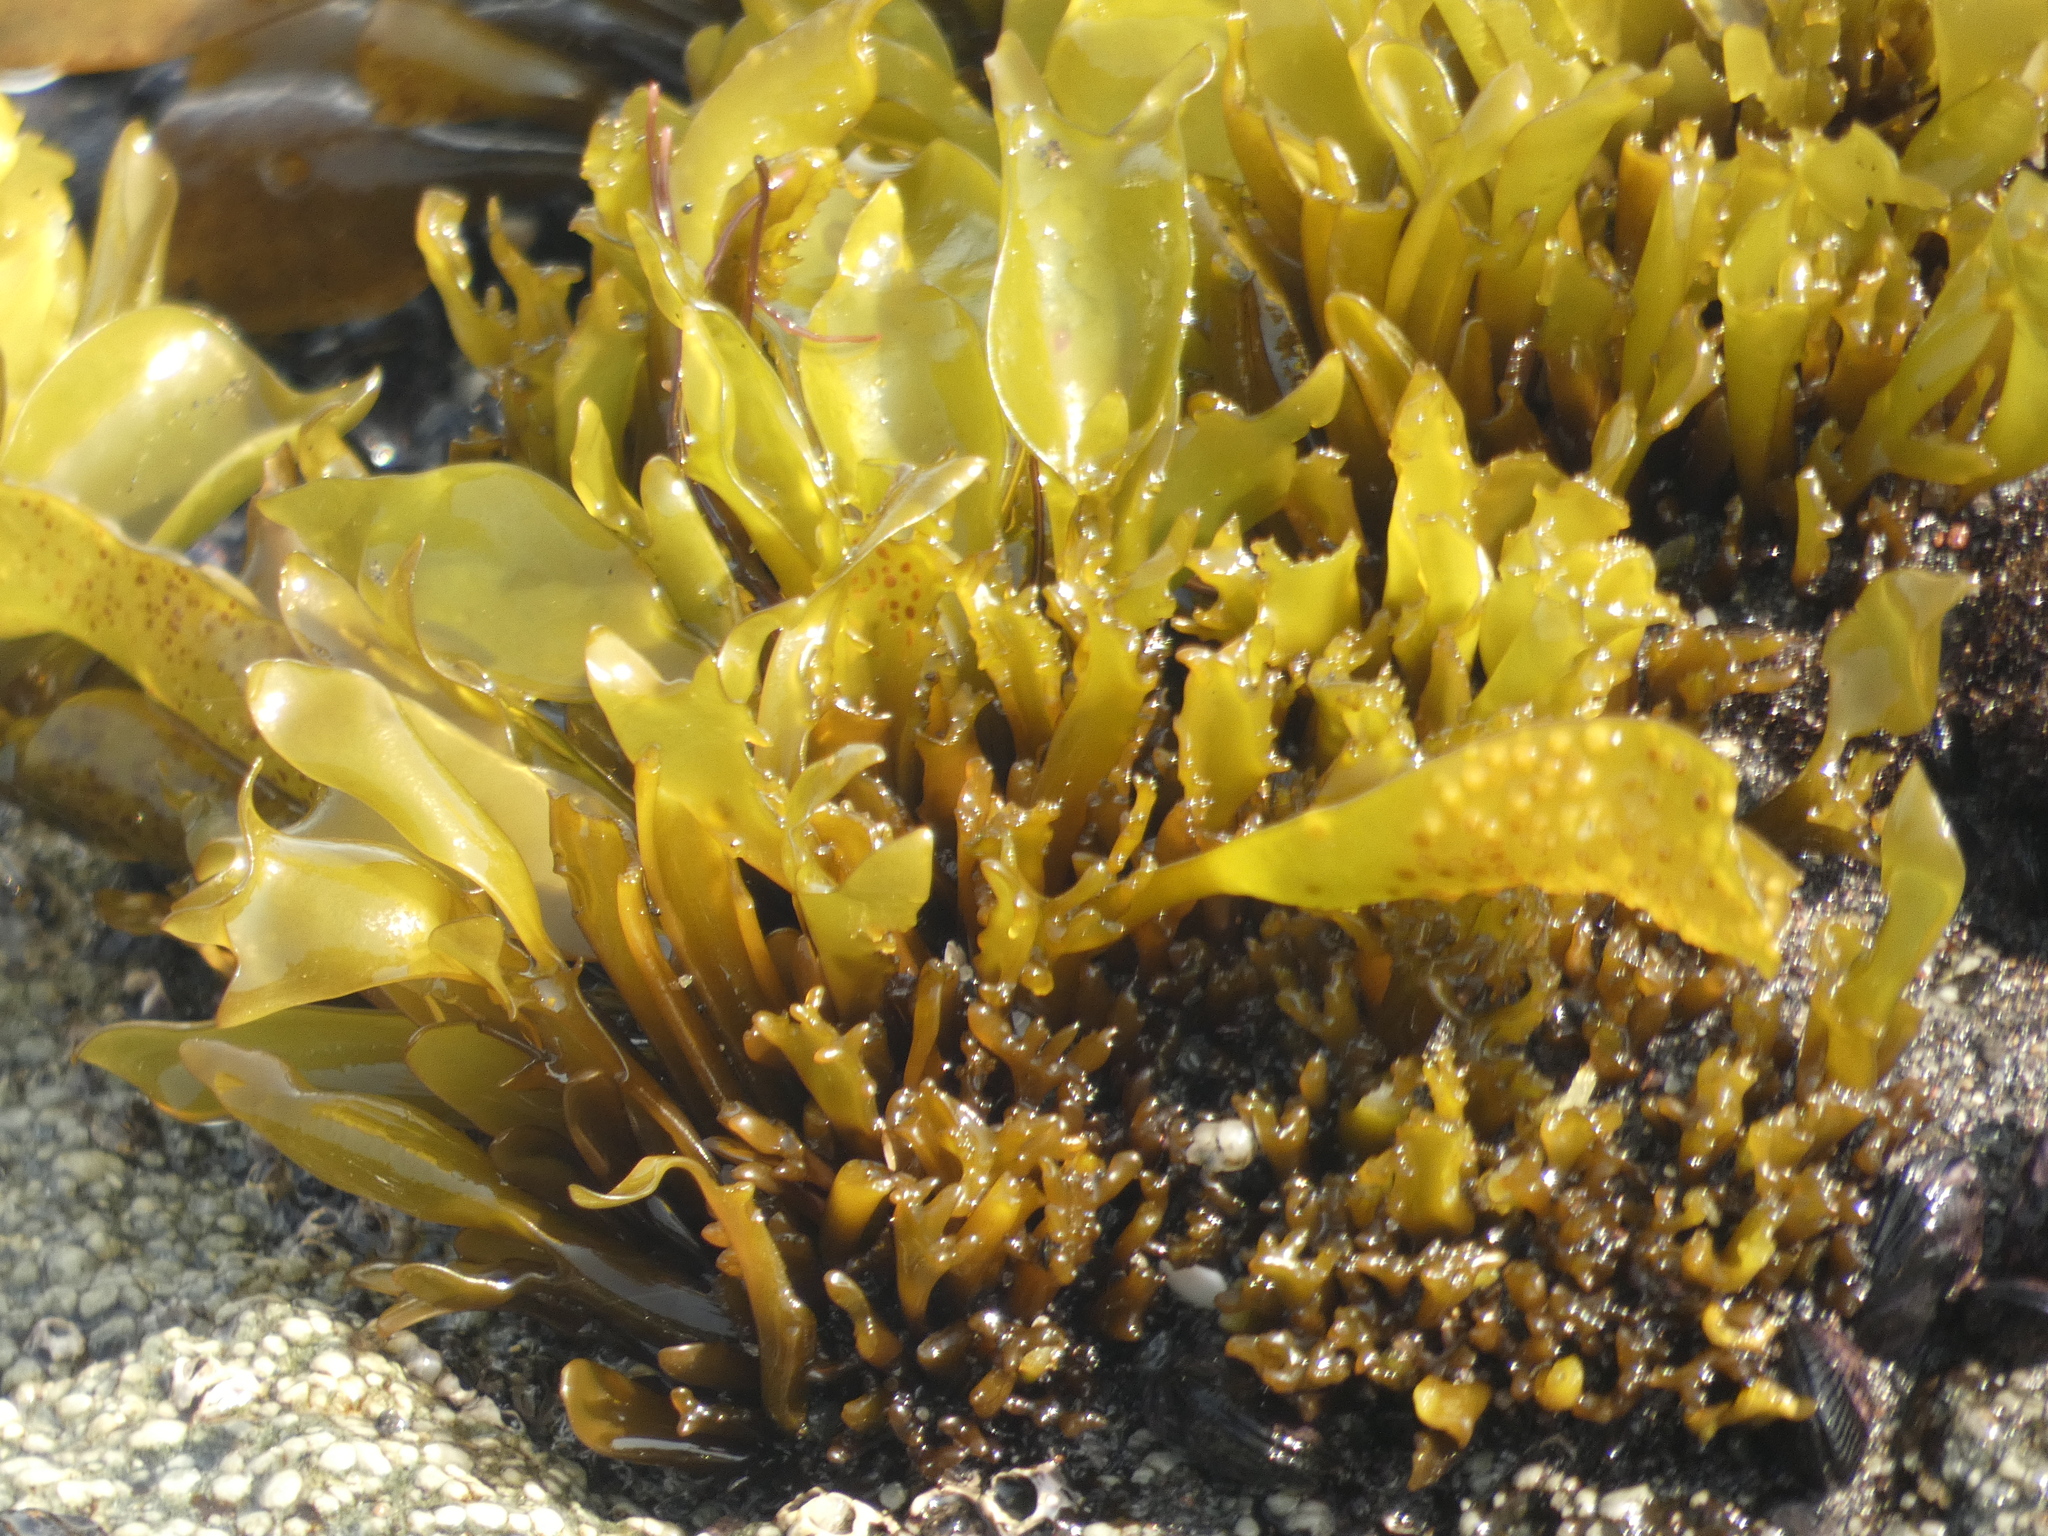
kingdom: Plantae
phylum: Rhodophyta
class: Florideophyceae
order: Gigartinales
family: Gigartinaceae
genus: Mazzaella
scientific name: Mazzaella laminarioides
